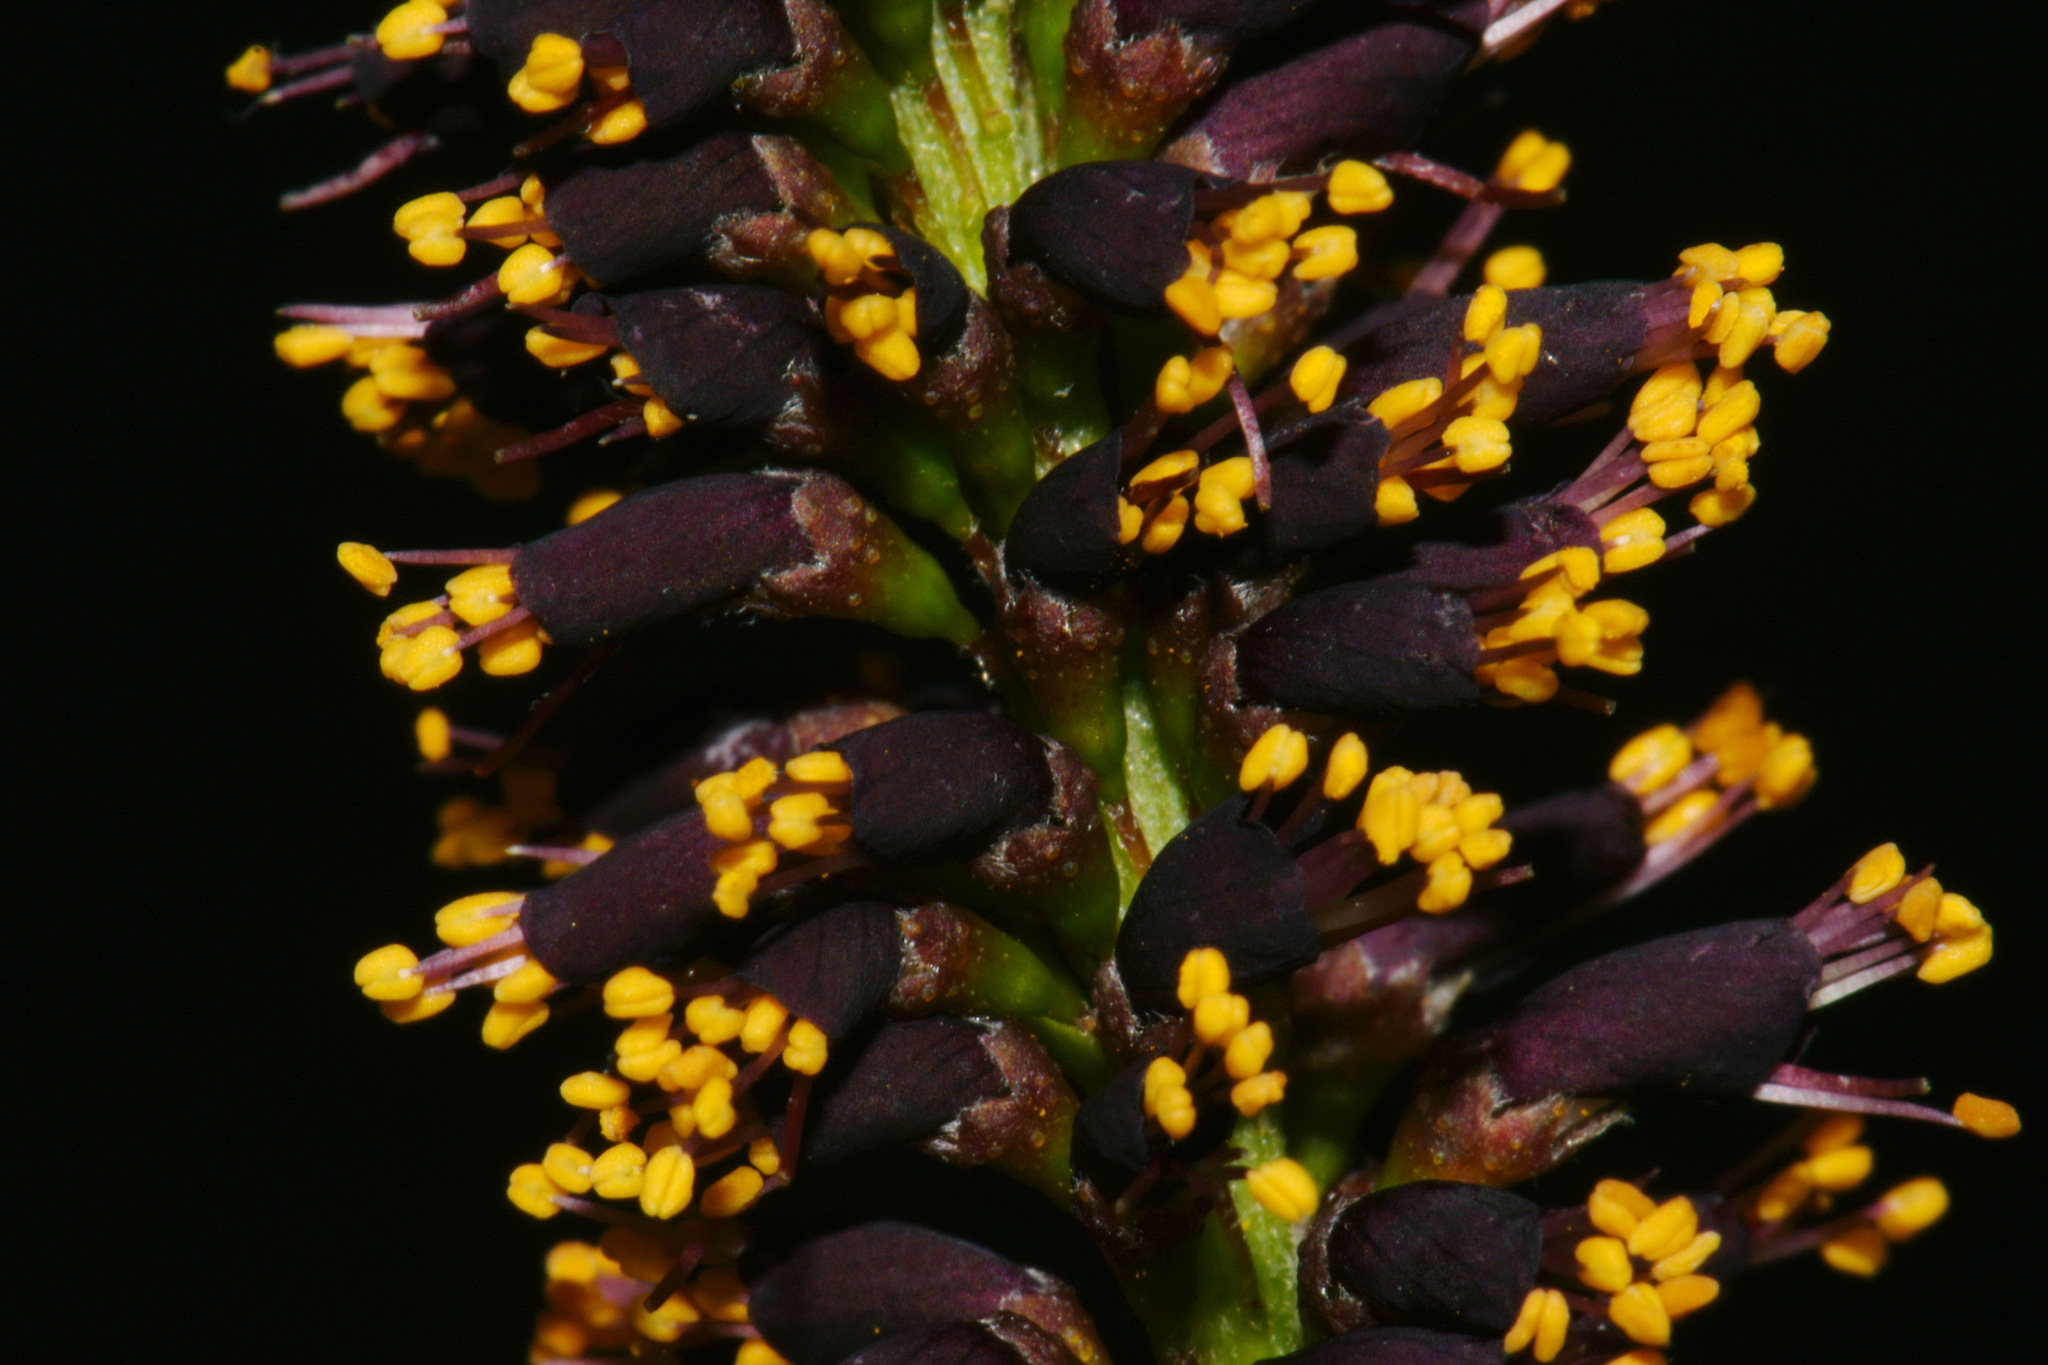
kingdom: Plantae
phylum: Tracheophyta
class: Magnoliopsida
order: Fabales
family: Fabaceae
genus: Amorpha
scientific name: Amorpha fruticosa
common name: False indigo
